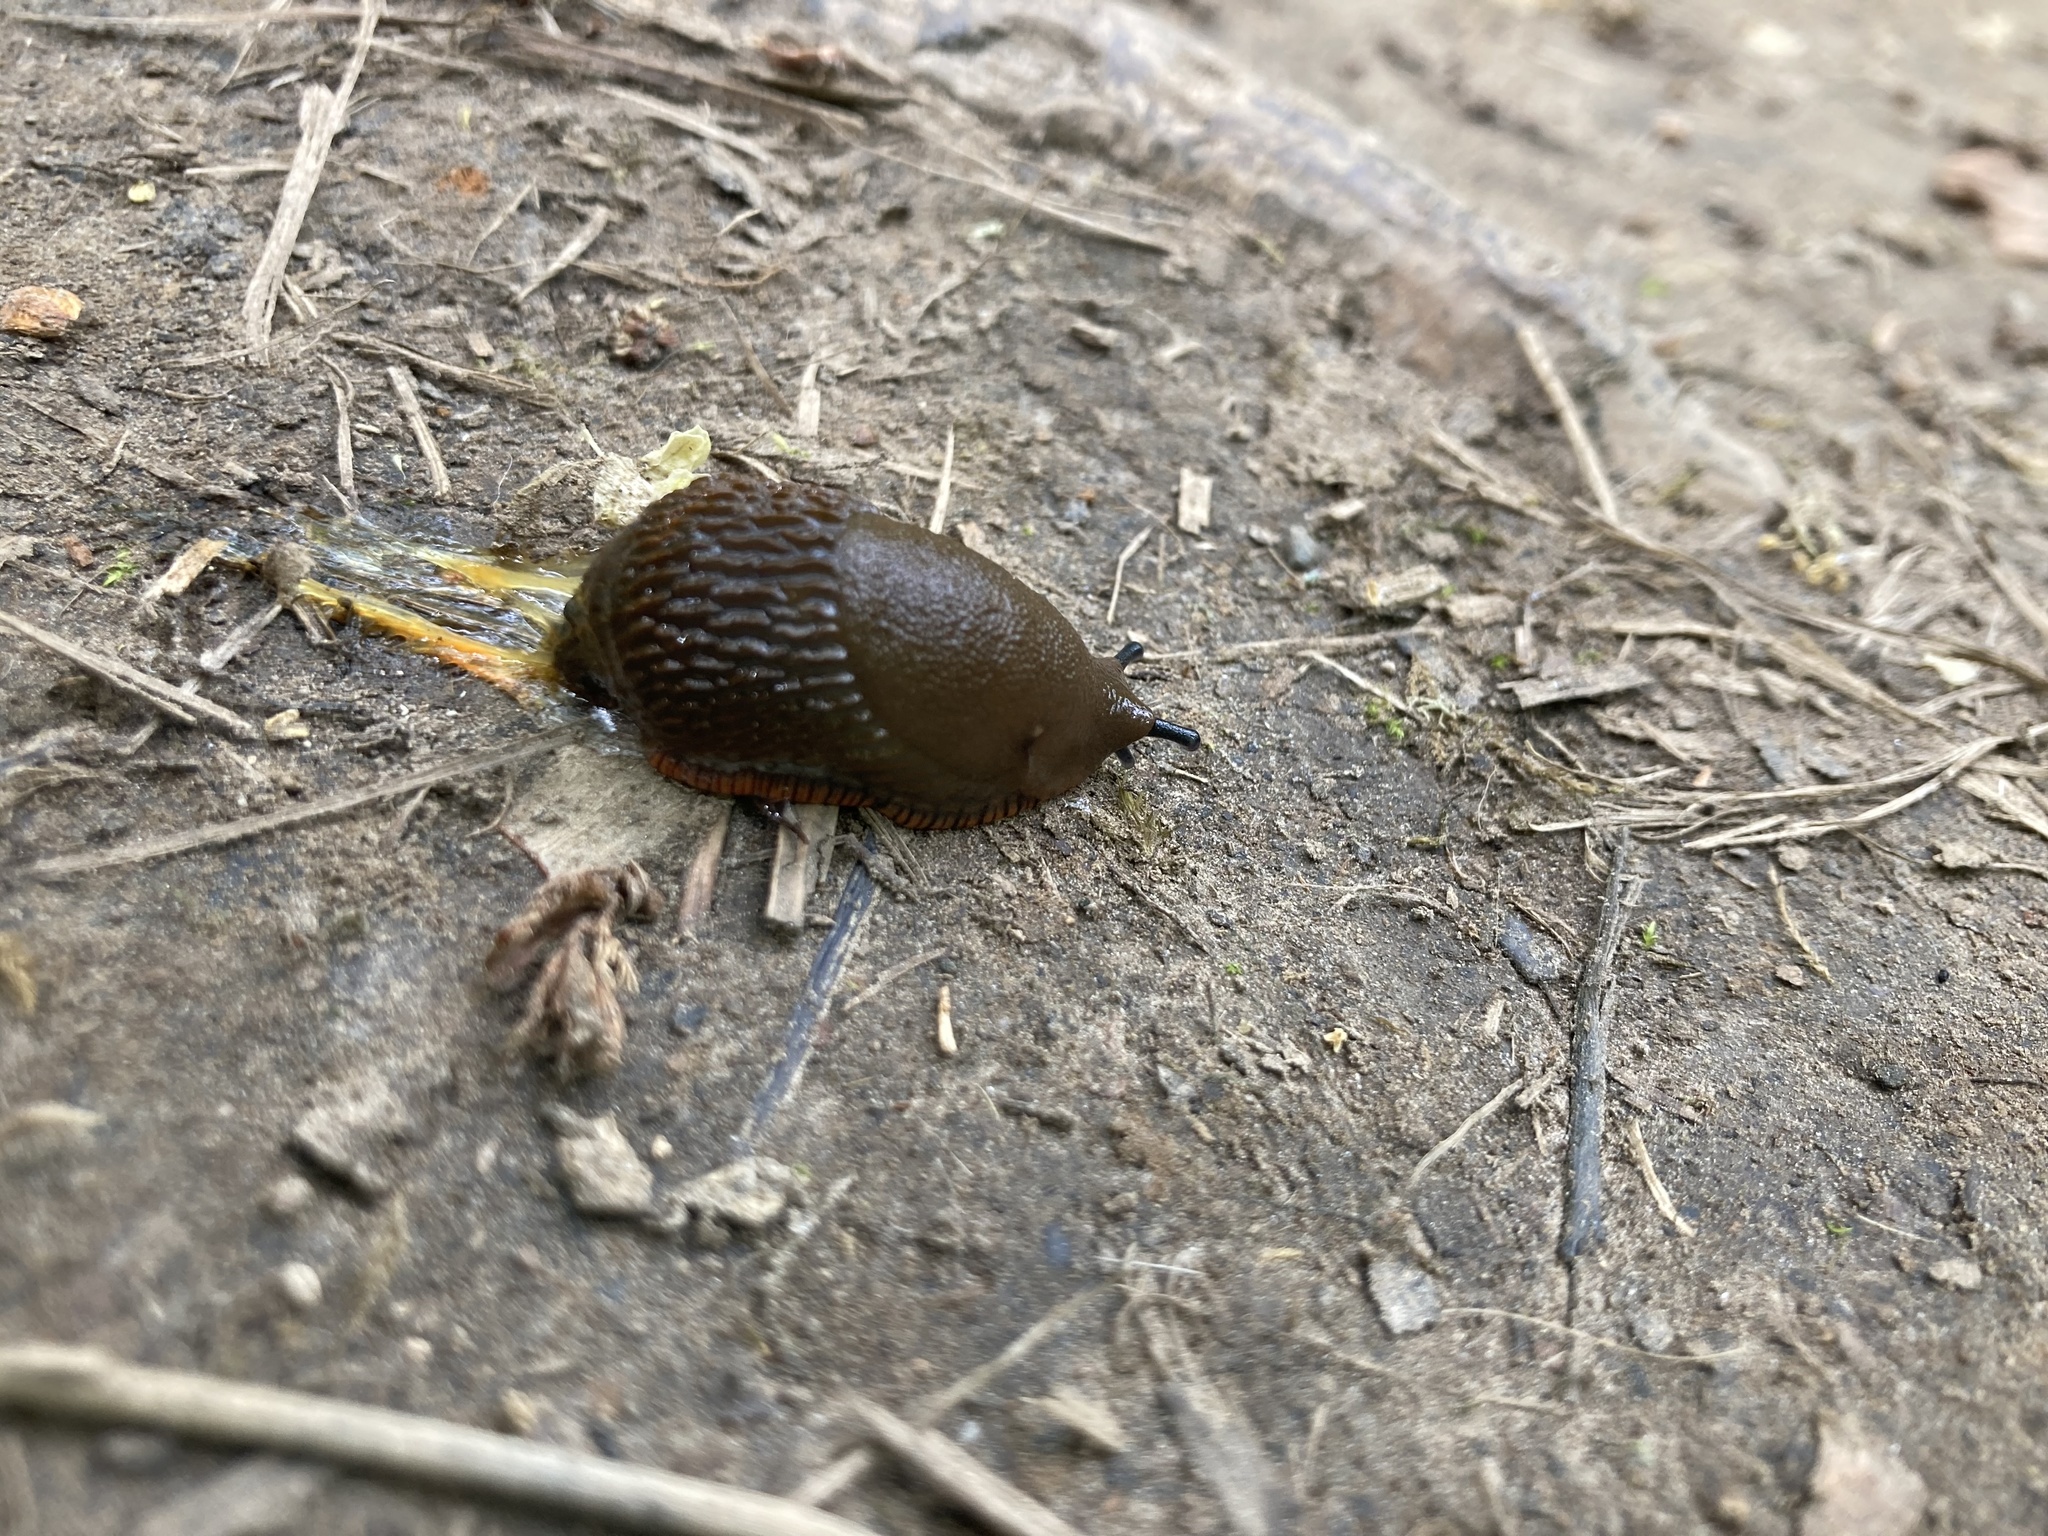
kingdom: Animalia
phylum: Mollusca
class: Gastropoda
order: Stylommatophora
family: Arionidae
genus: Arion
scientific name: Arion
